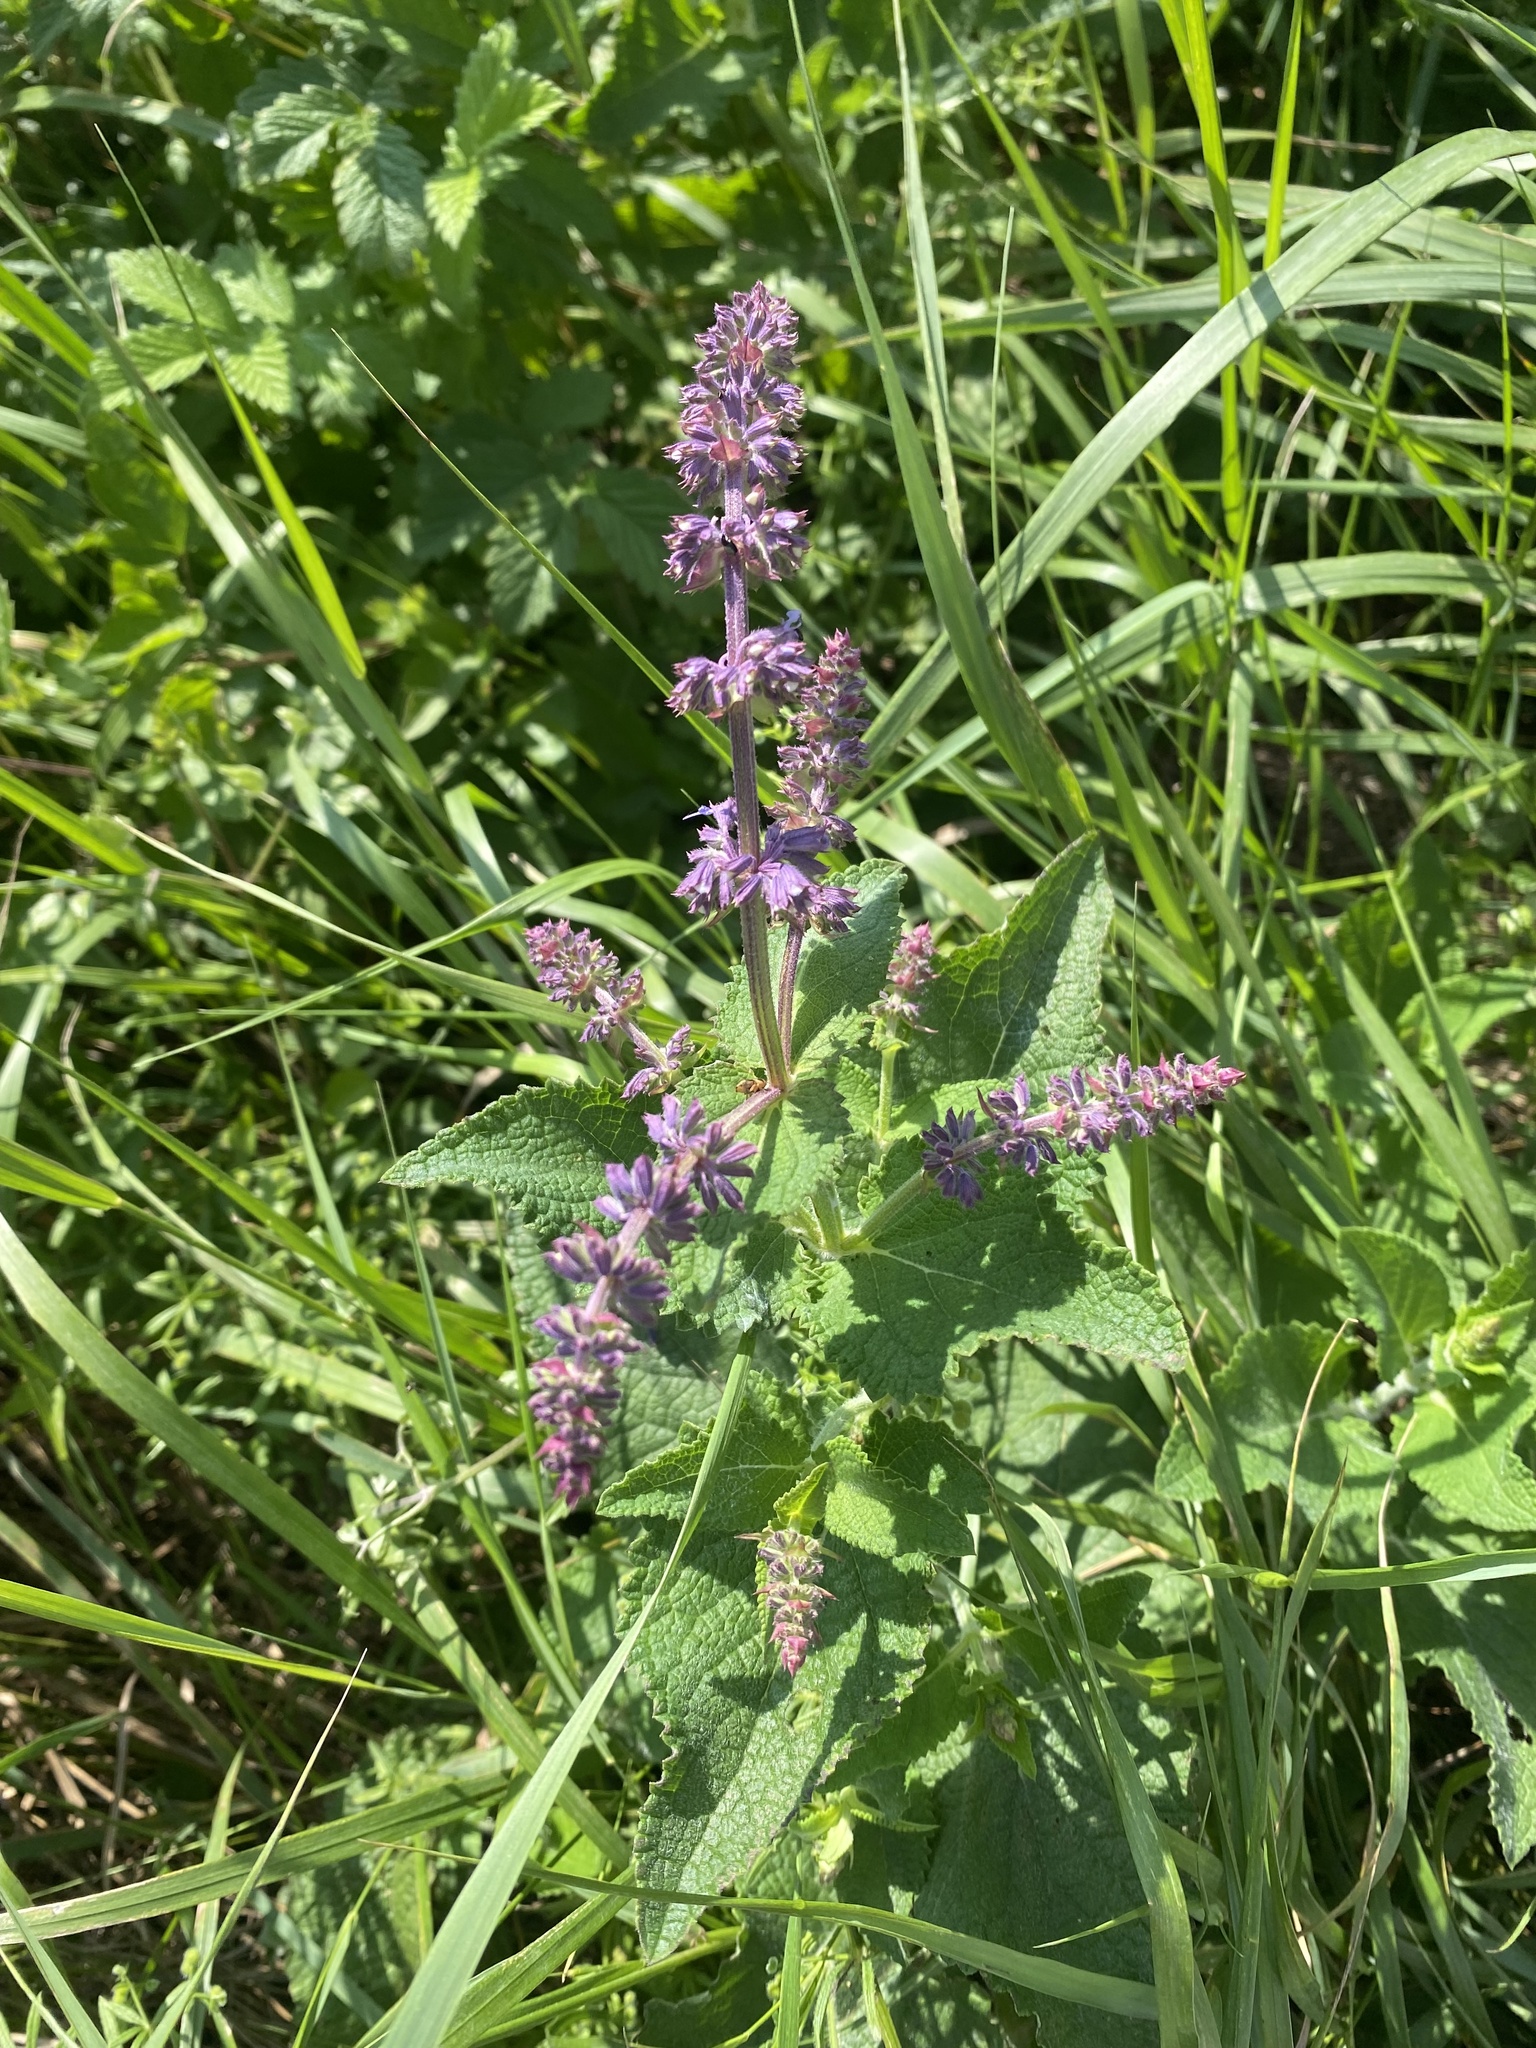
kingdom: Plantae
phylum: Tracheophyta
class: Magnoliopsida
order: Lamiales
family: Lamiaceae
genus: Salvia
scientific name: Salvia verticillata
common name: Whorled clary
